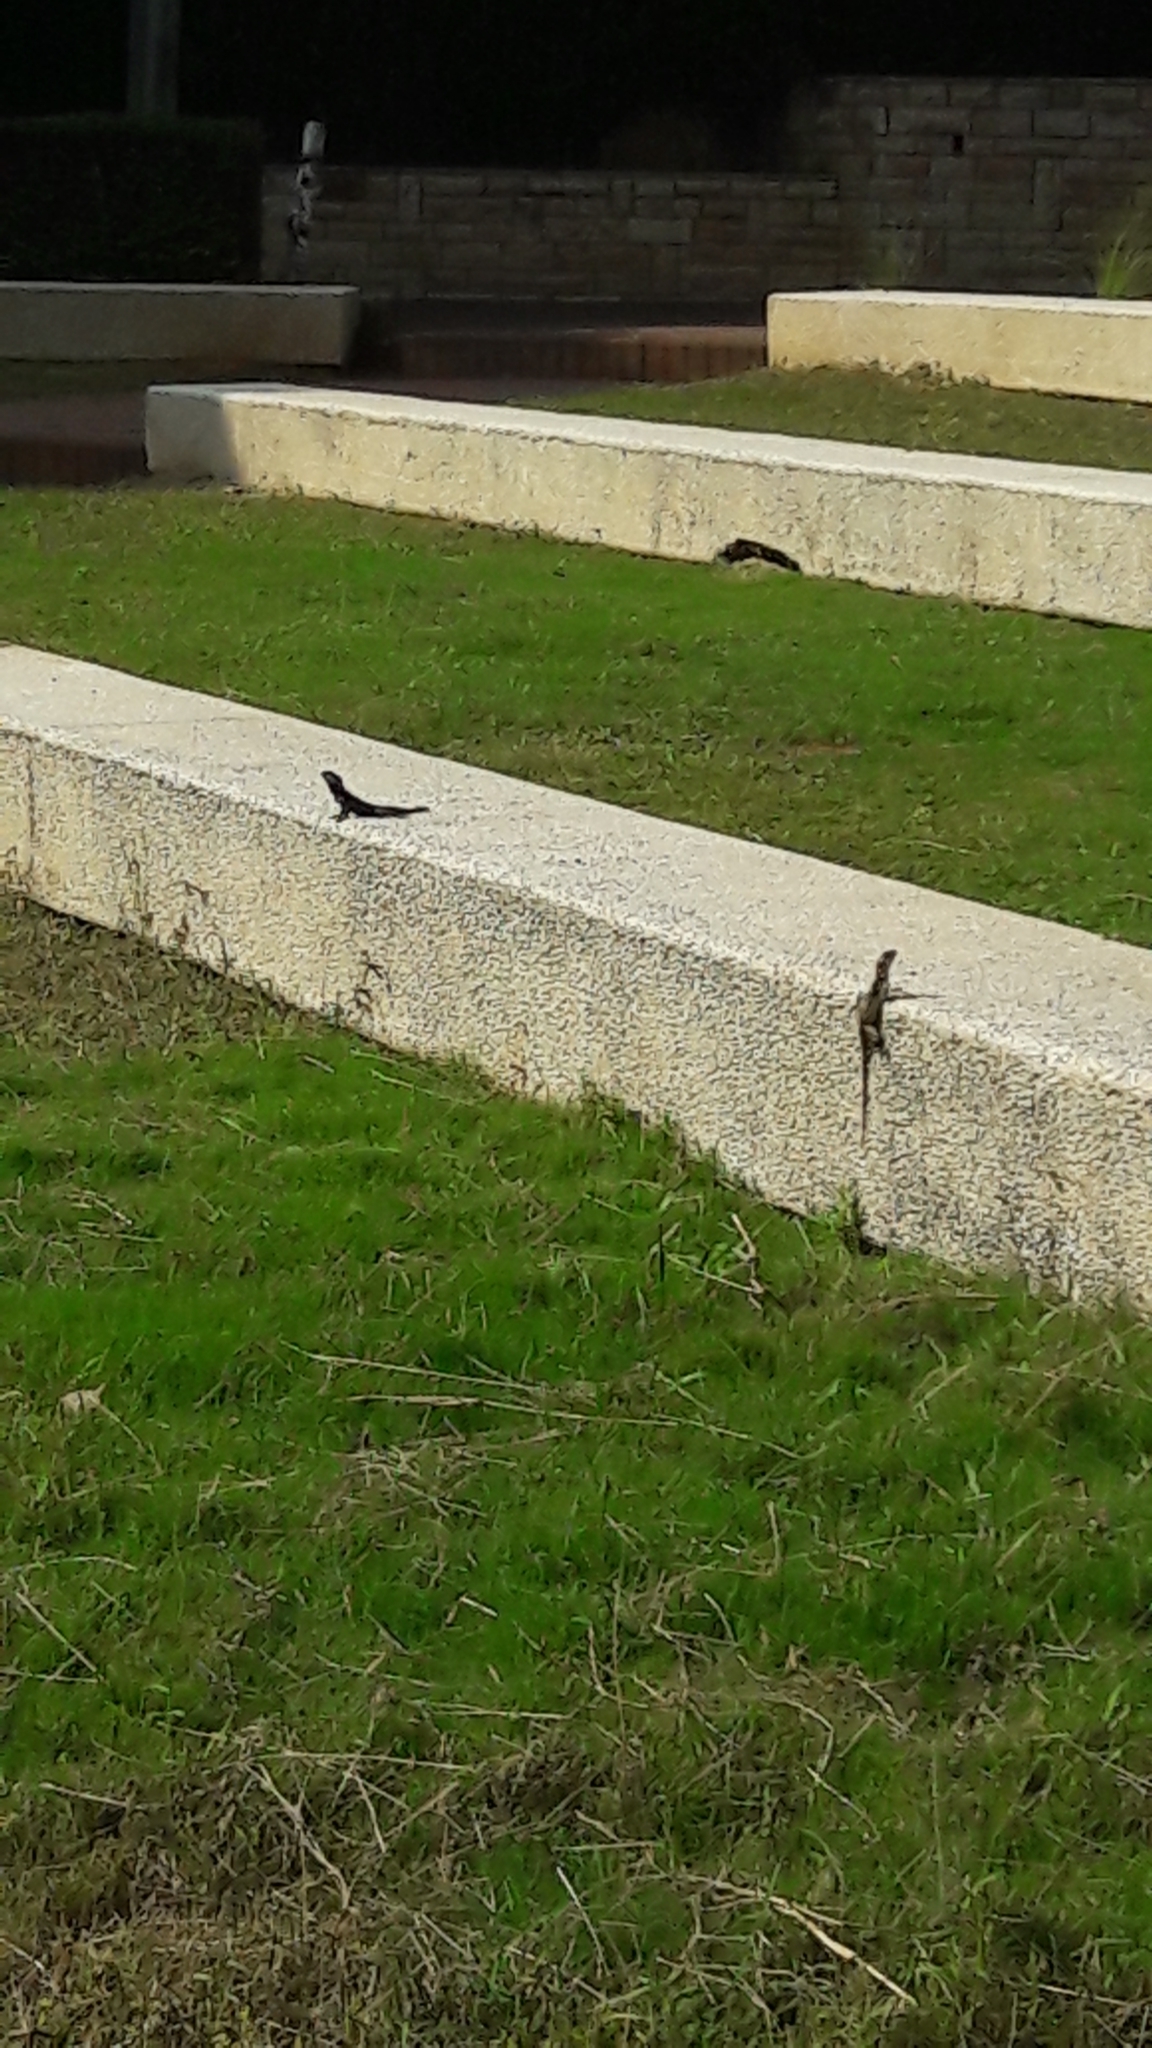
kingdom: Animalia
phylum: Chordata
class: Squamata
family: Agamidae
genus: Laudakia
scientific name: Laudakia vulgaris
